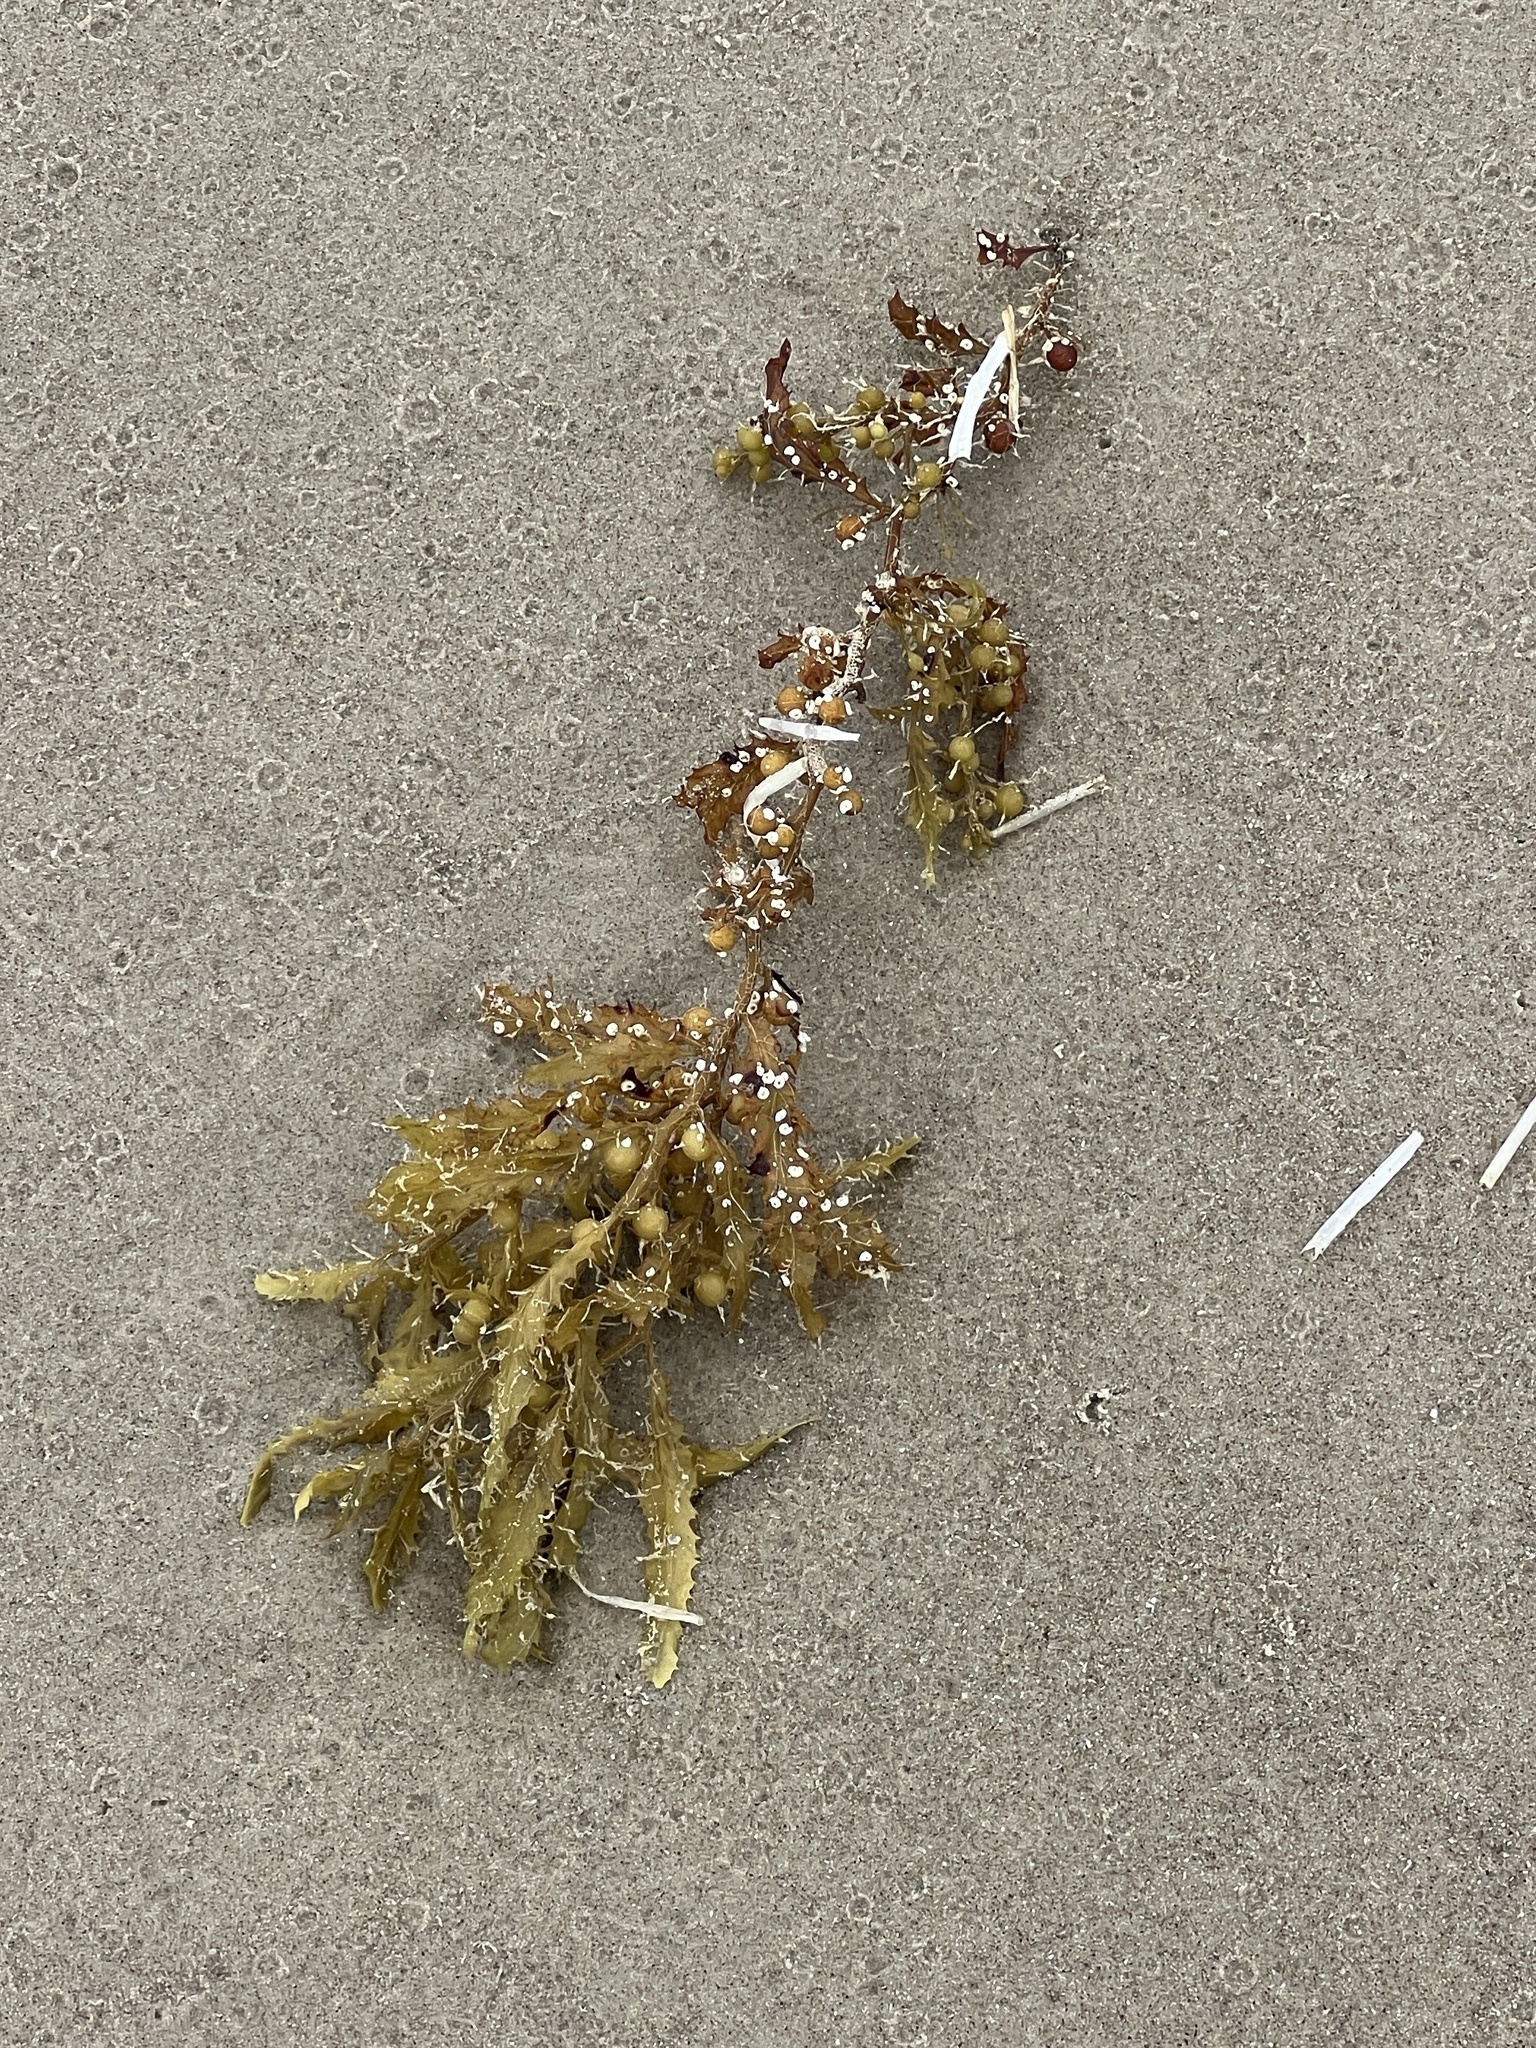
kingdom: Chromista
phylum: Ochrophyta
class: Phaeophyceae
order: Fucales
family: Sargassaceae
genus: Sargassum
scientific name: Sargassum fluitans
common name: Sargassum seaweed
